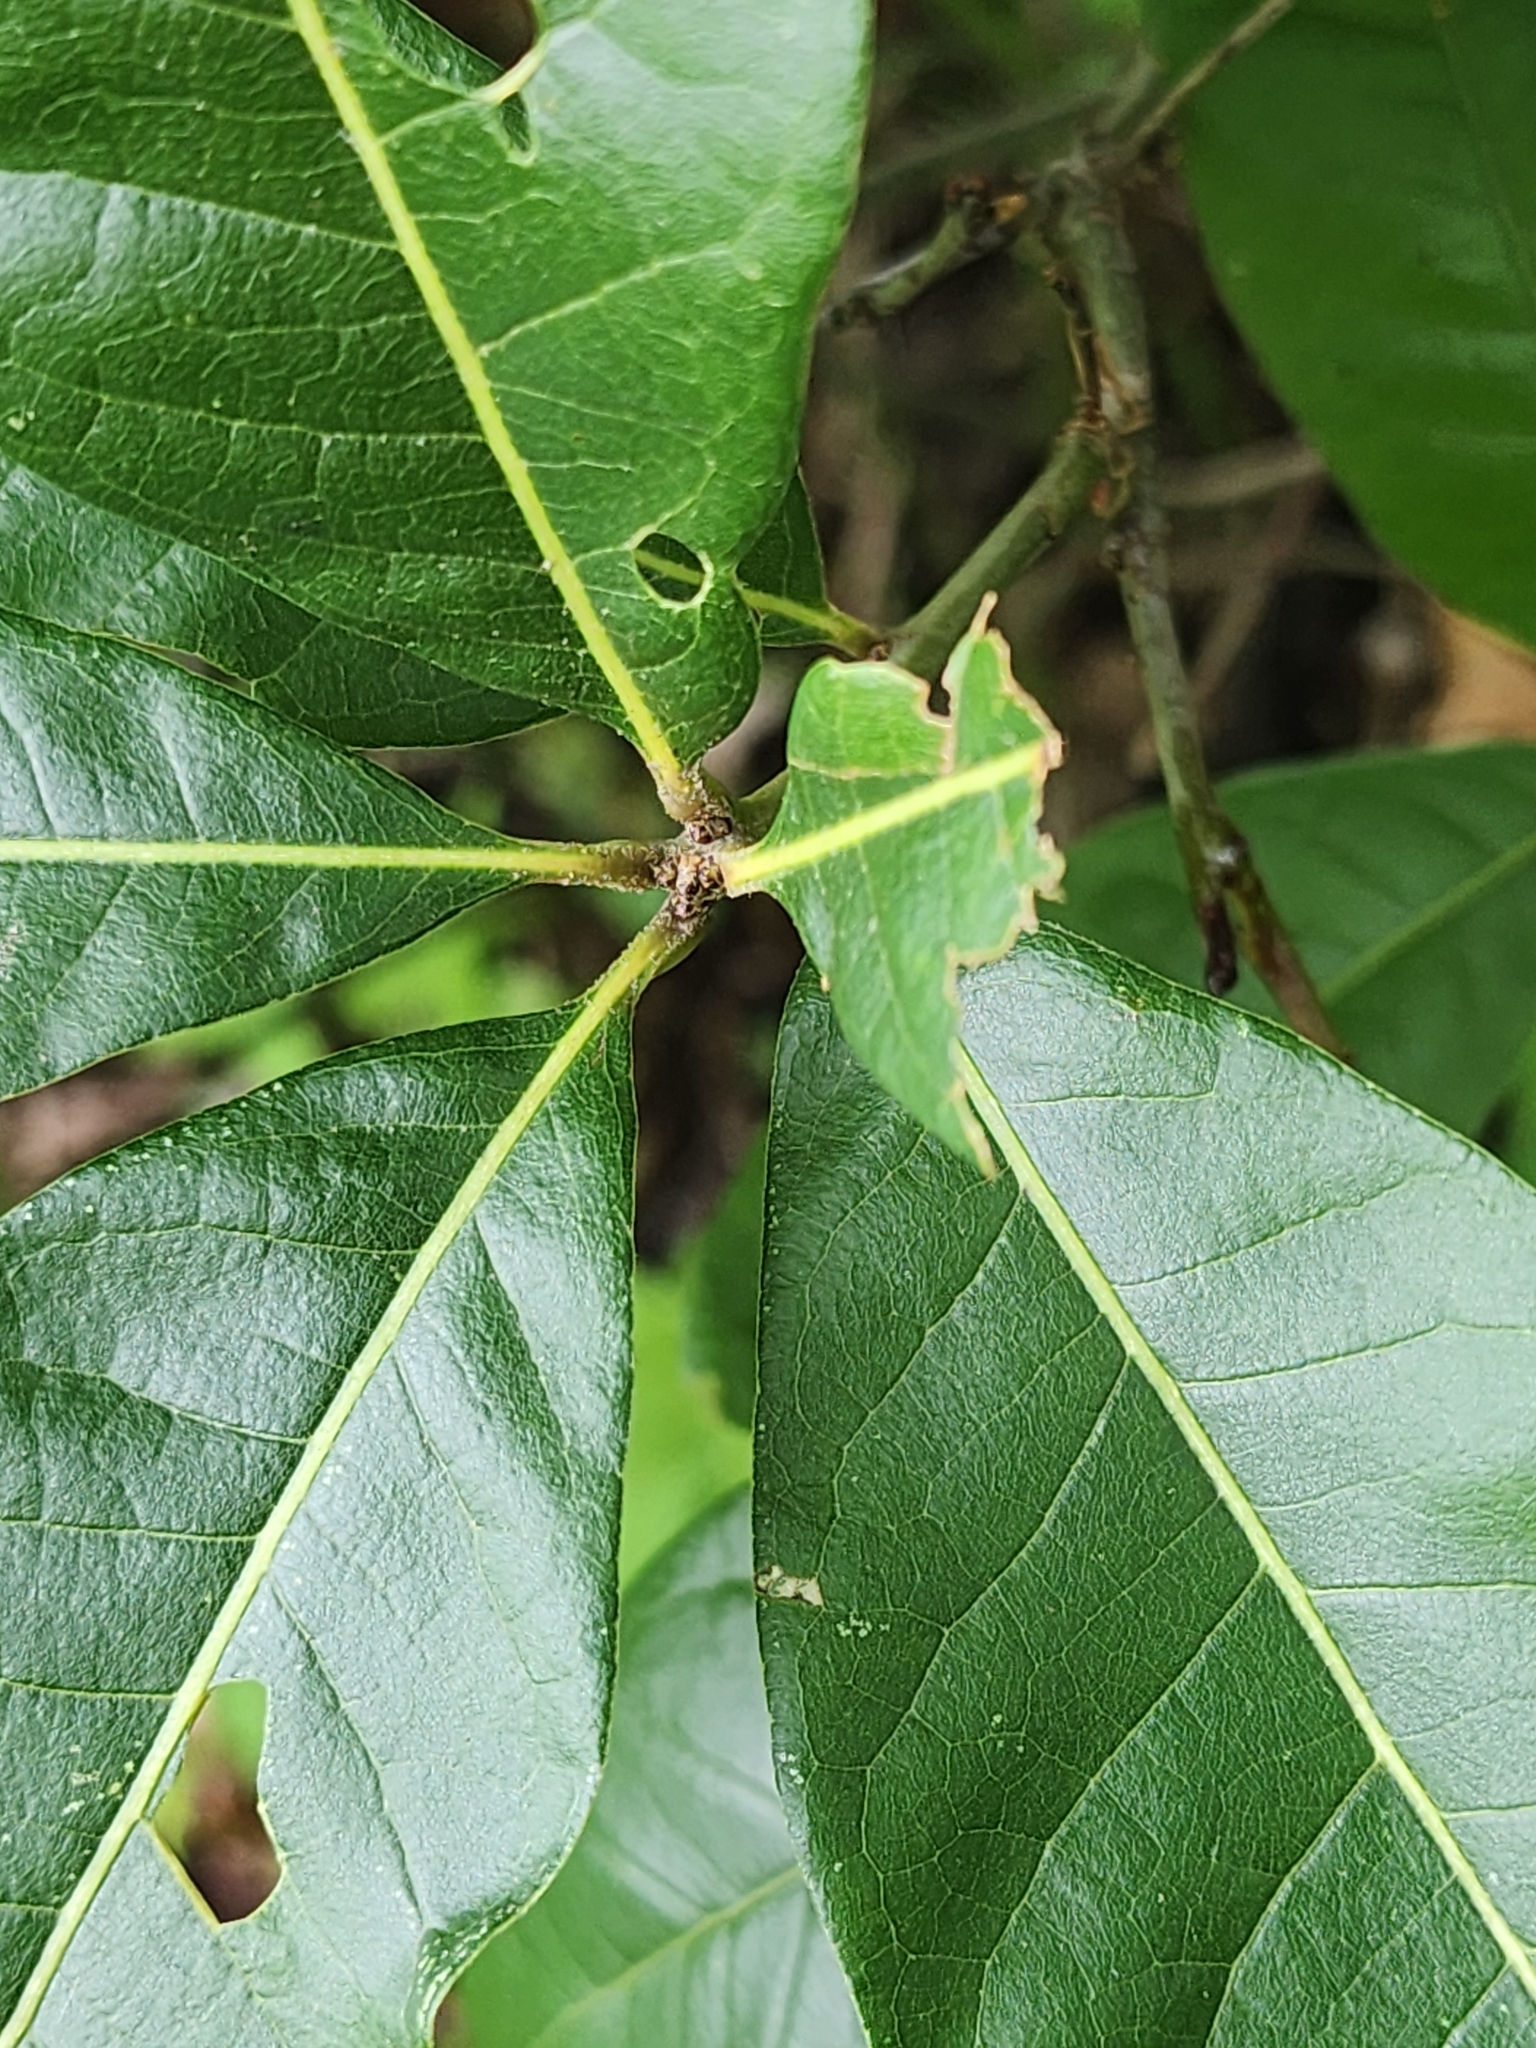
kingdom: Plantae
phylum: Tracheophyta
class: Magnoliopsida
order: Fagales
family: Fagaceae
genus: Quercus
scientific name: Quercus imbricaria
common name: Shingle oak
